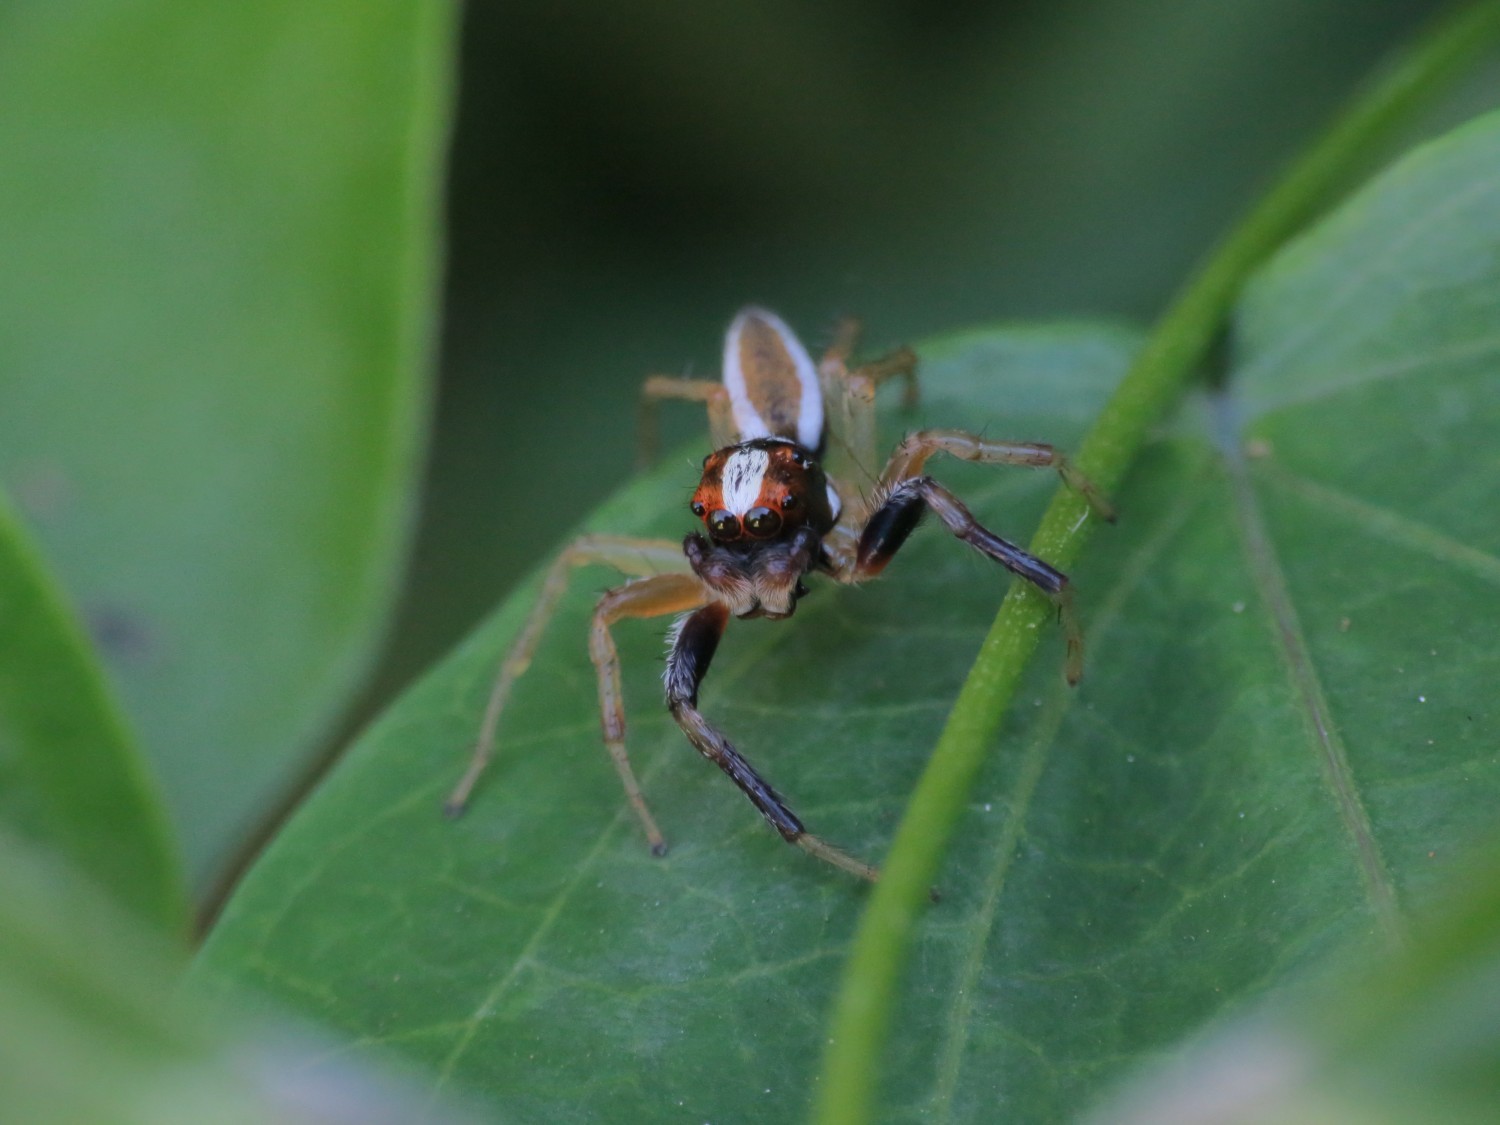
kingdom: Animalia
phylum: Arthropoda
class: Arachnida
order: Araneae
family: Salticidae
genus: Chira
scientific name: Chira spinosa
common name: Jumping spiders
